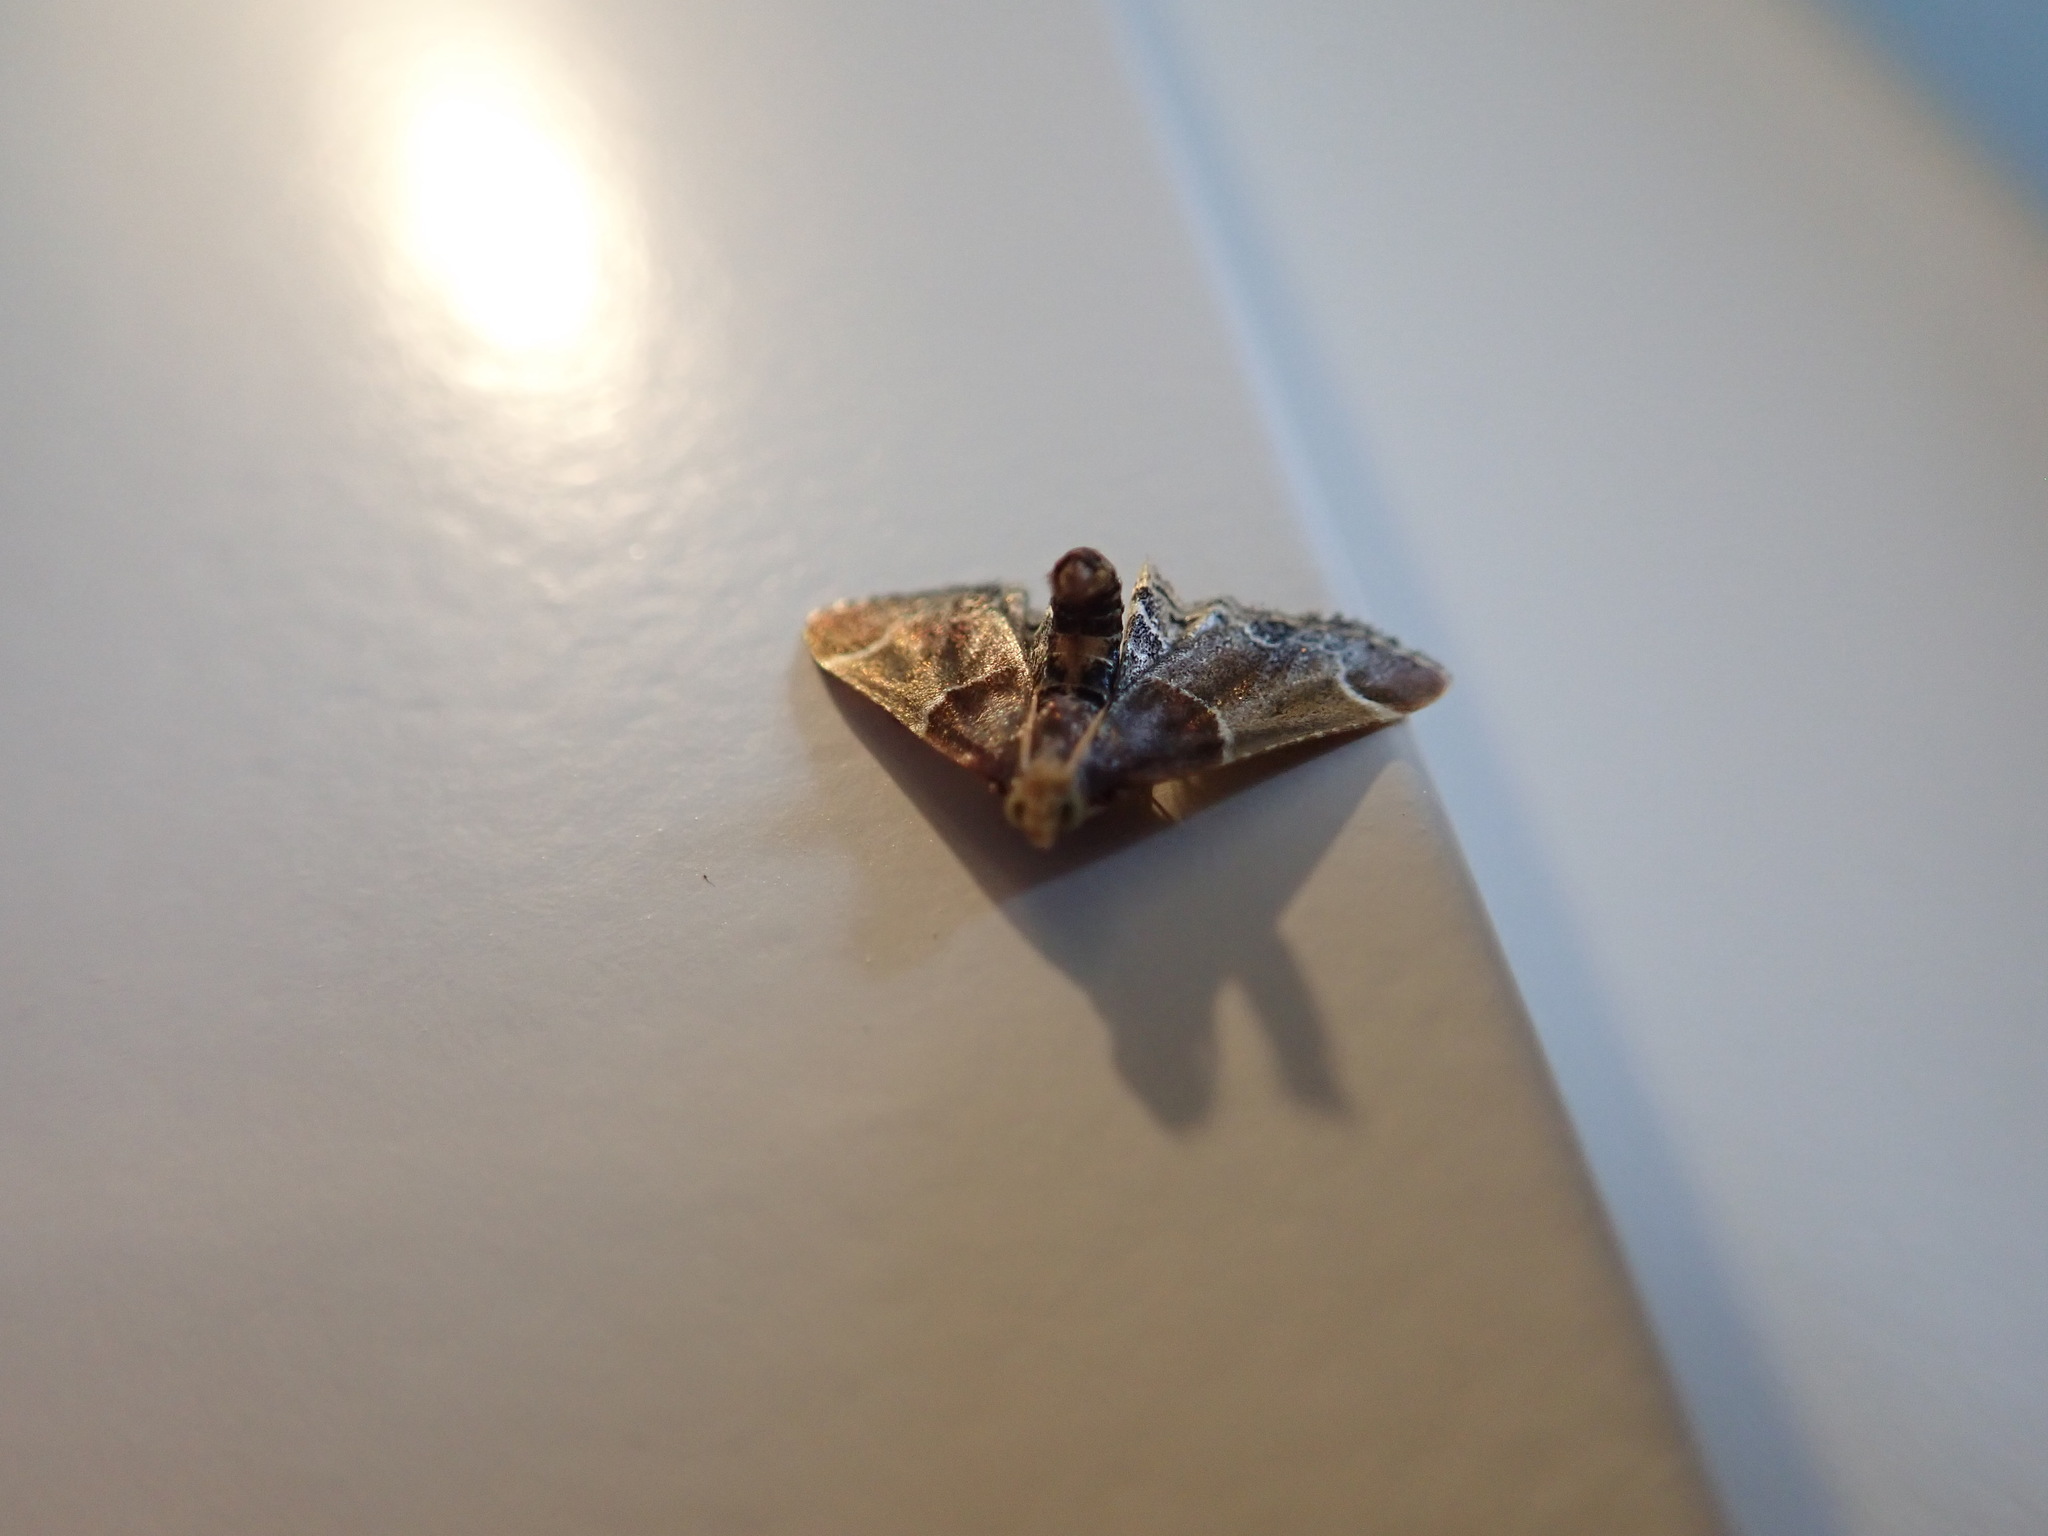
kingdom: Animalia
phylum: Arthropoda
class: Insecta
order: Lepidoptera
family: Pyralidae
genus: Pyralis
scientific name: Pyralis farinalis
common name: Meal moth
